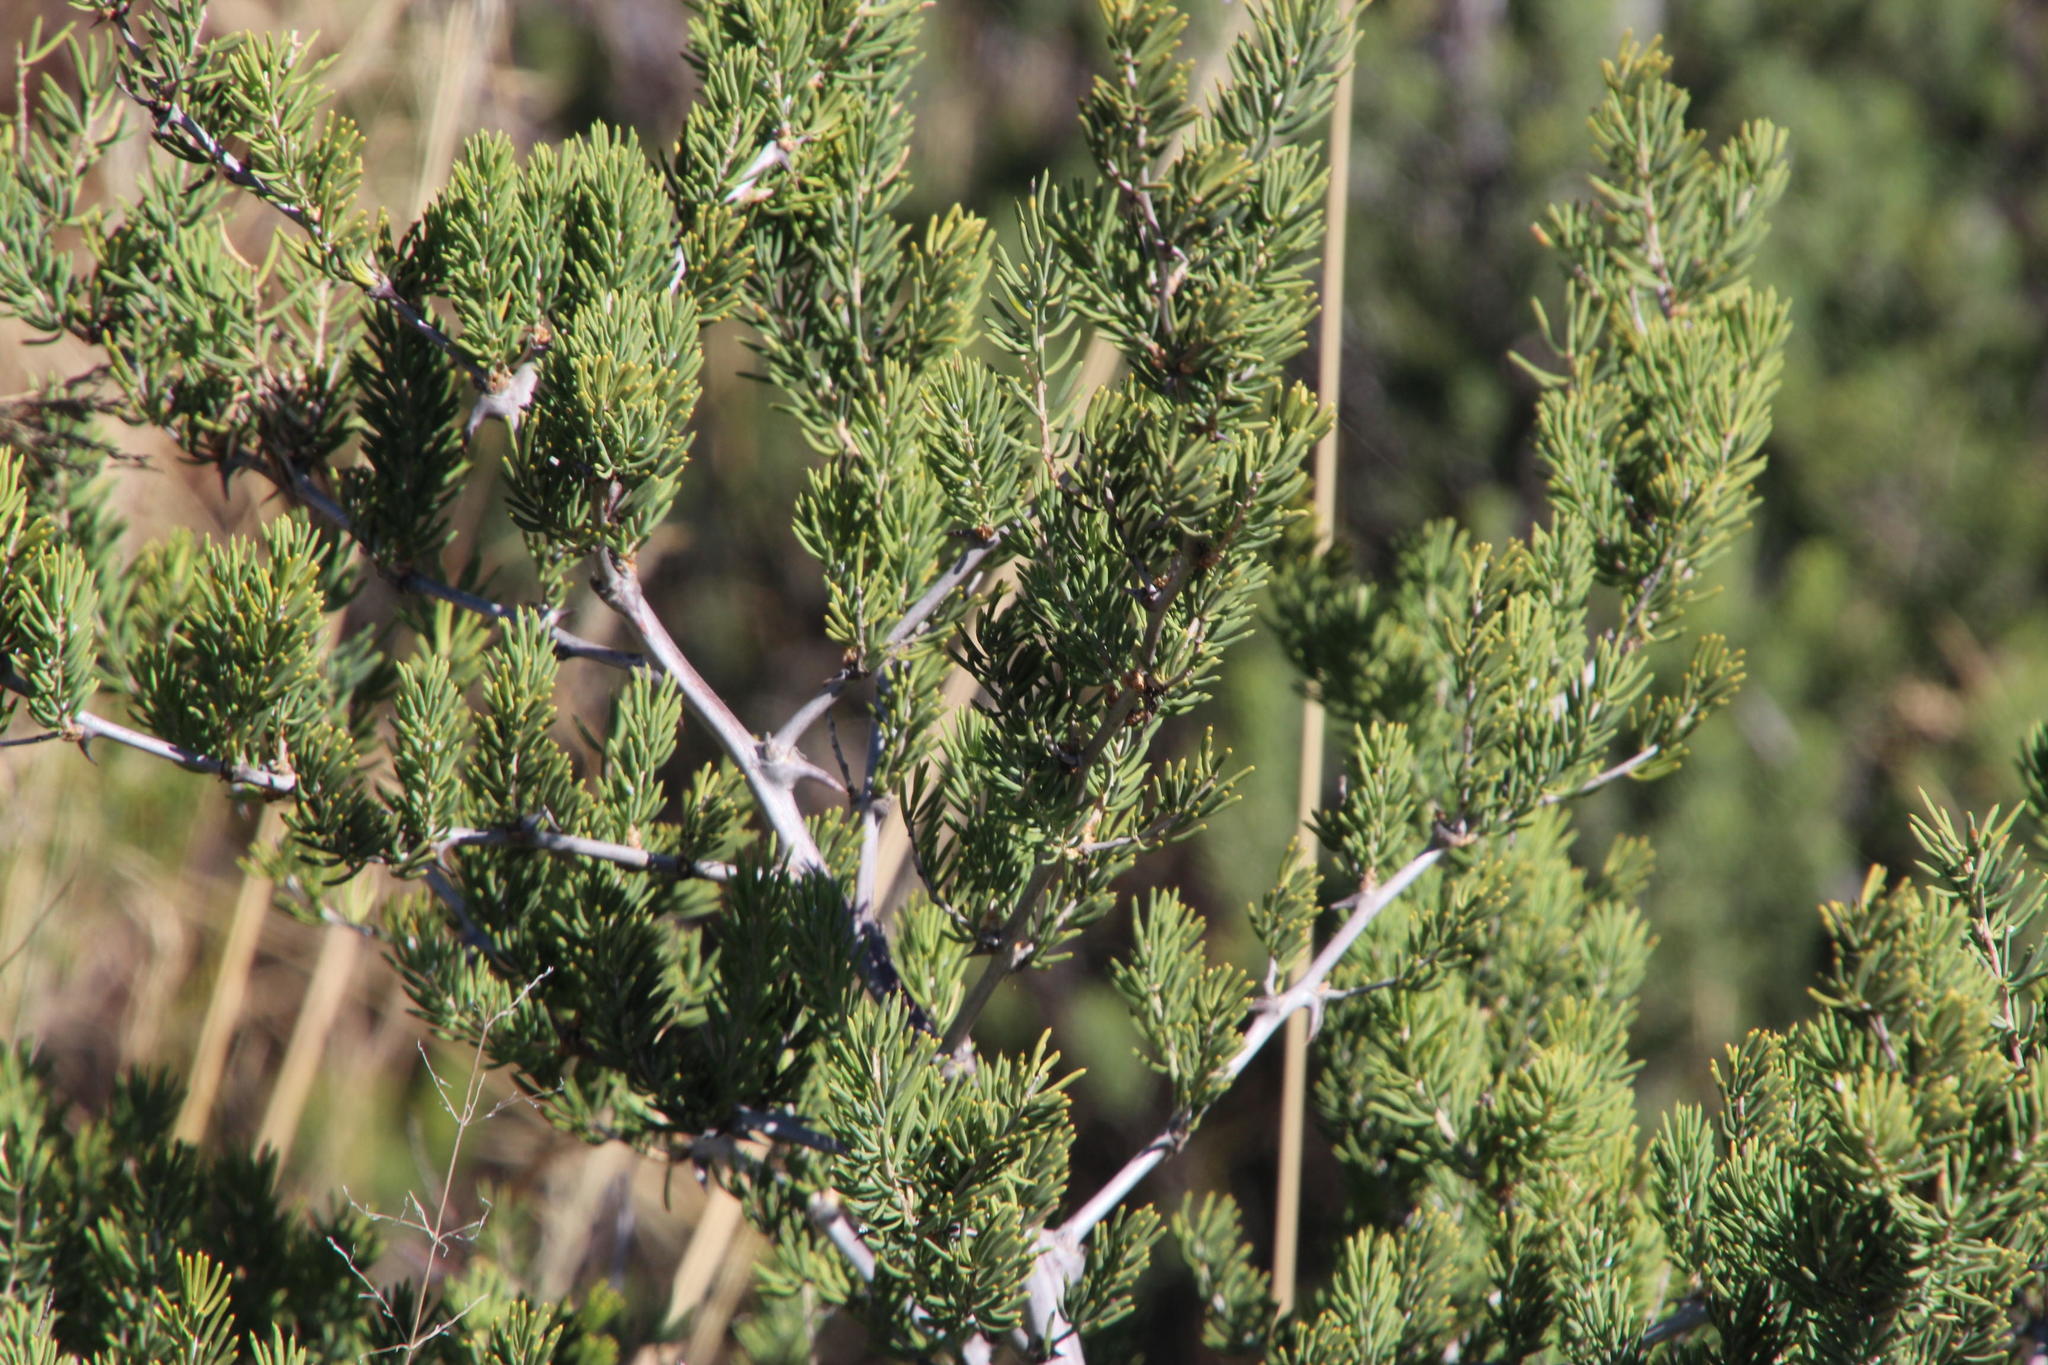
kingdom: Plantae
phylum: Tracheophyta
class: Liliopsida
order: Asparagales
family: Asparagaceae
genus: Asparagus
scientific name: Asparagus mucronatus
